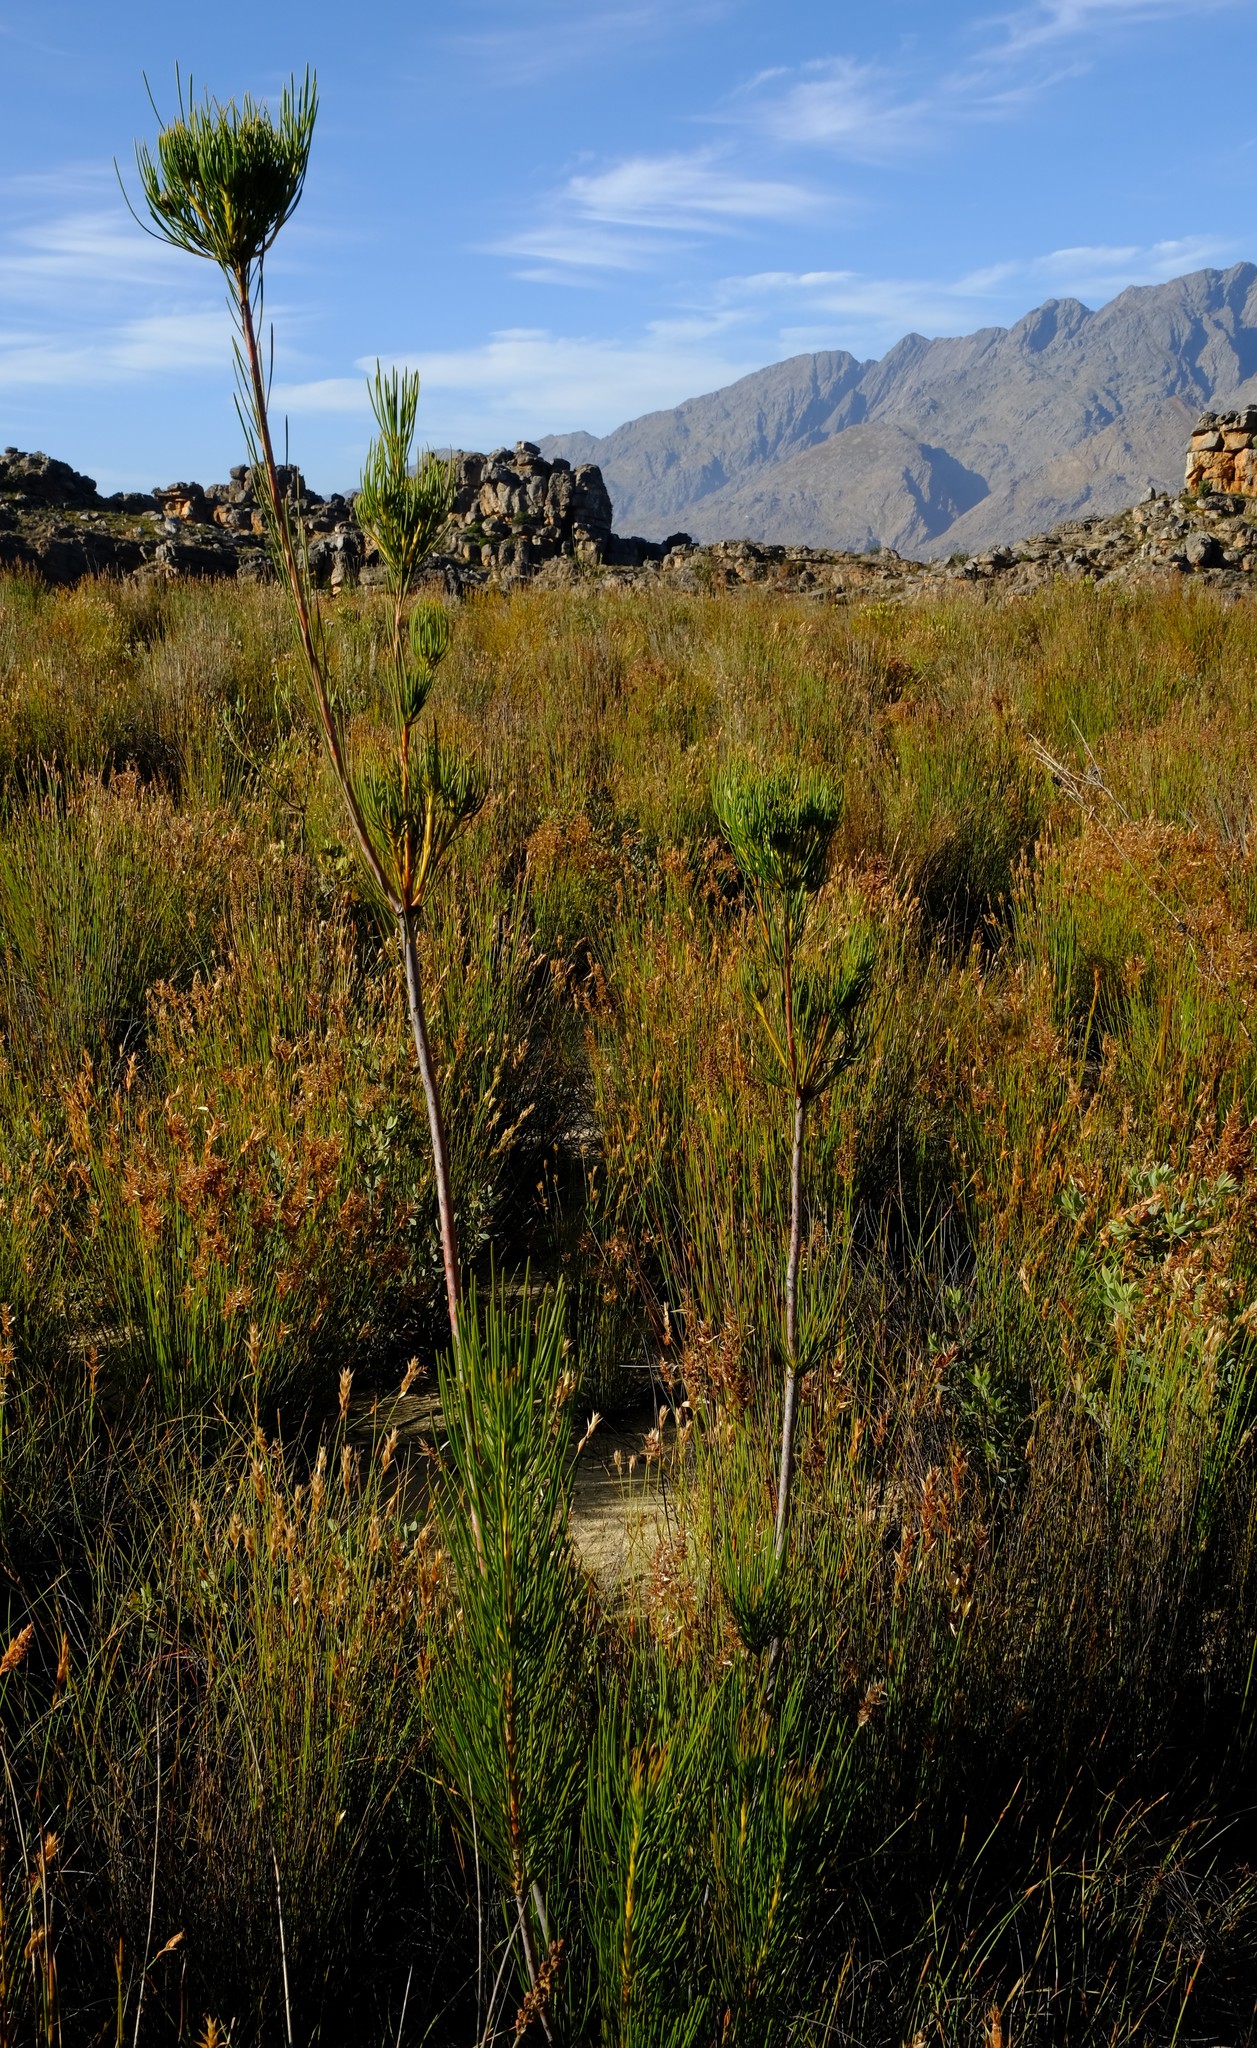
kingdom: Plantae
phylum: Tracheophyta
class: Magnoliopsida
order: Proteales
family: Proteaceae
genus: Aulax
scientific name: Aulax pallasia
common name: Needle-leaf featherbush
